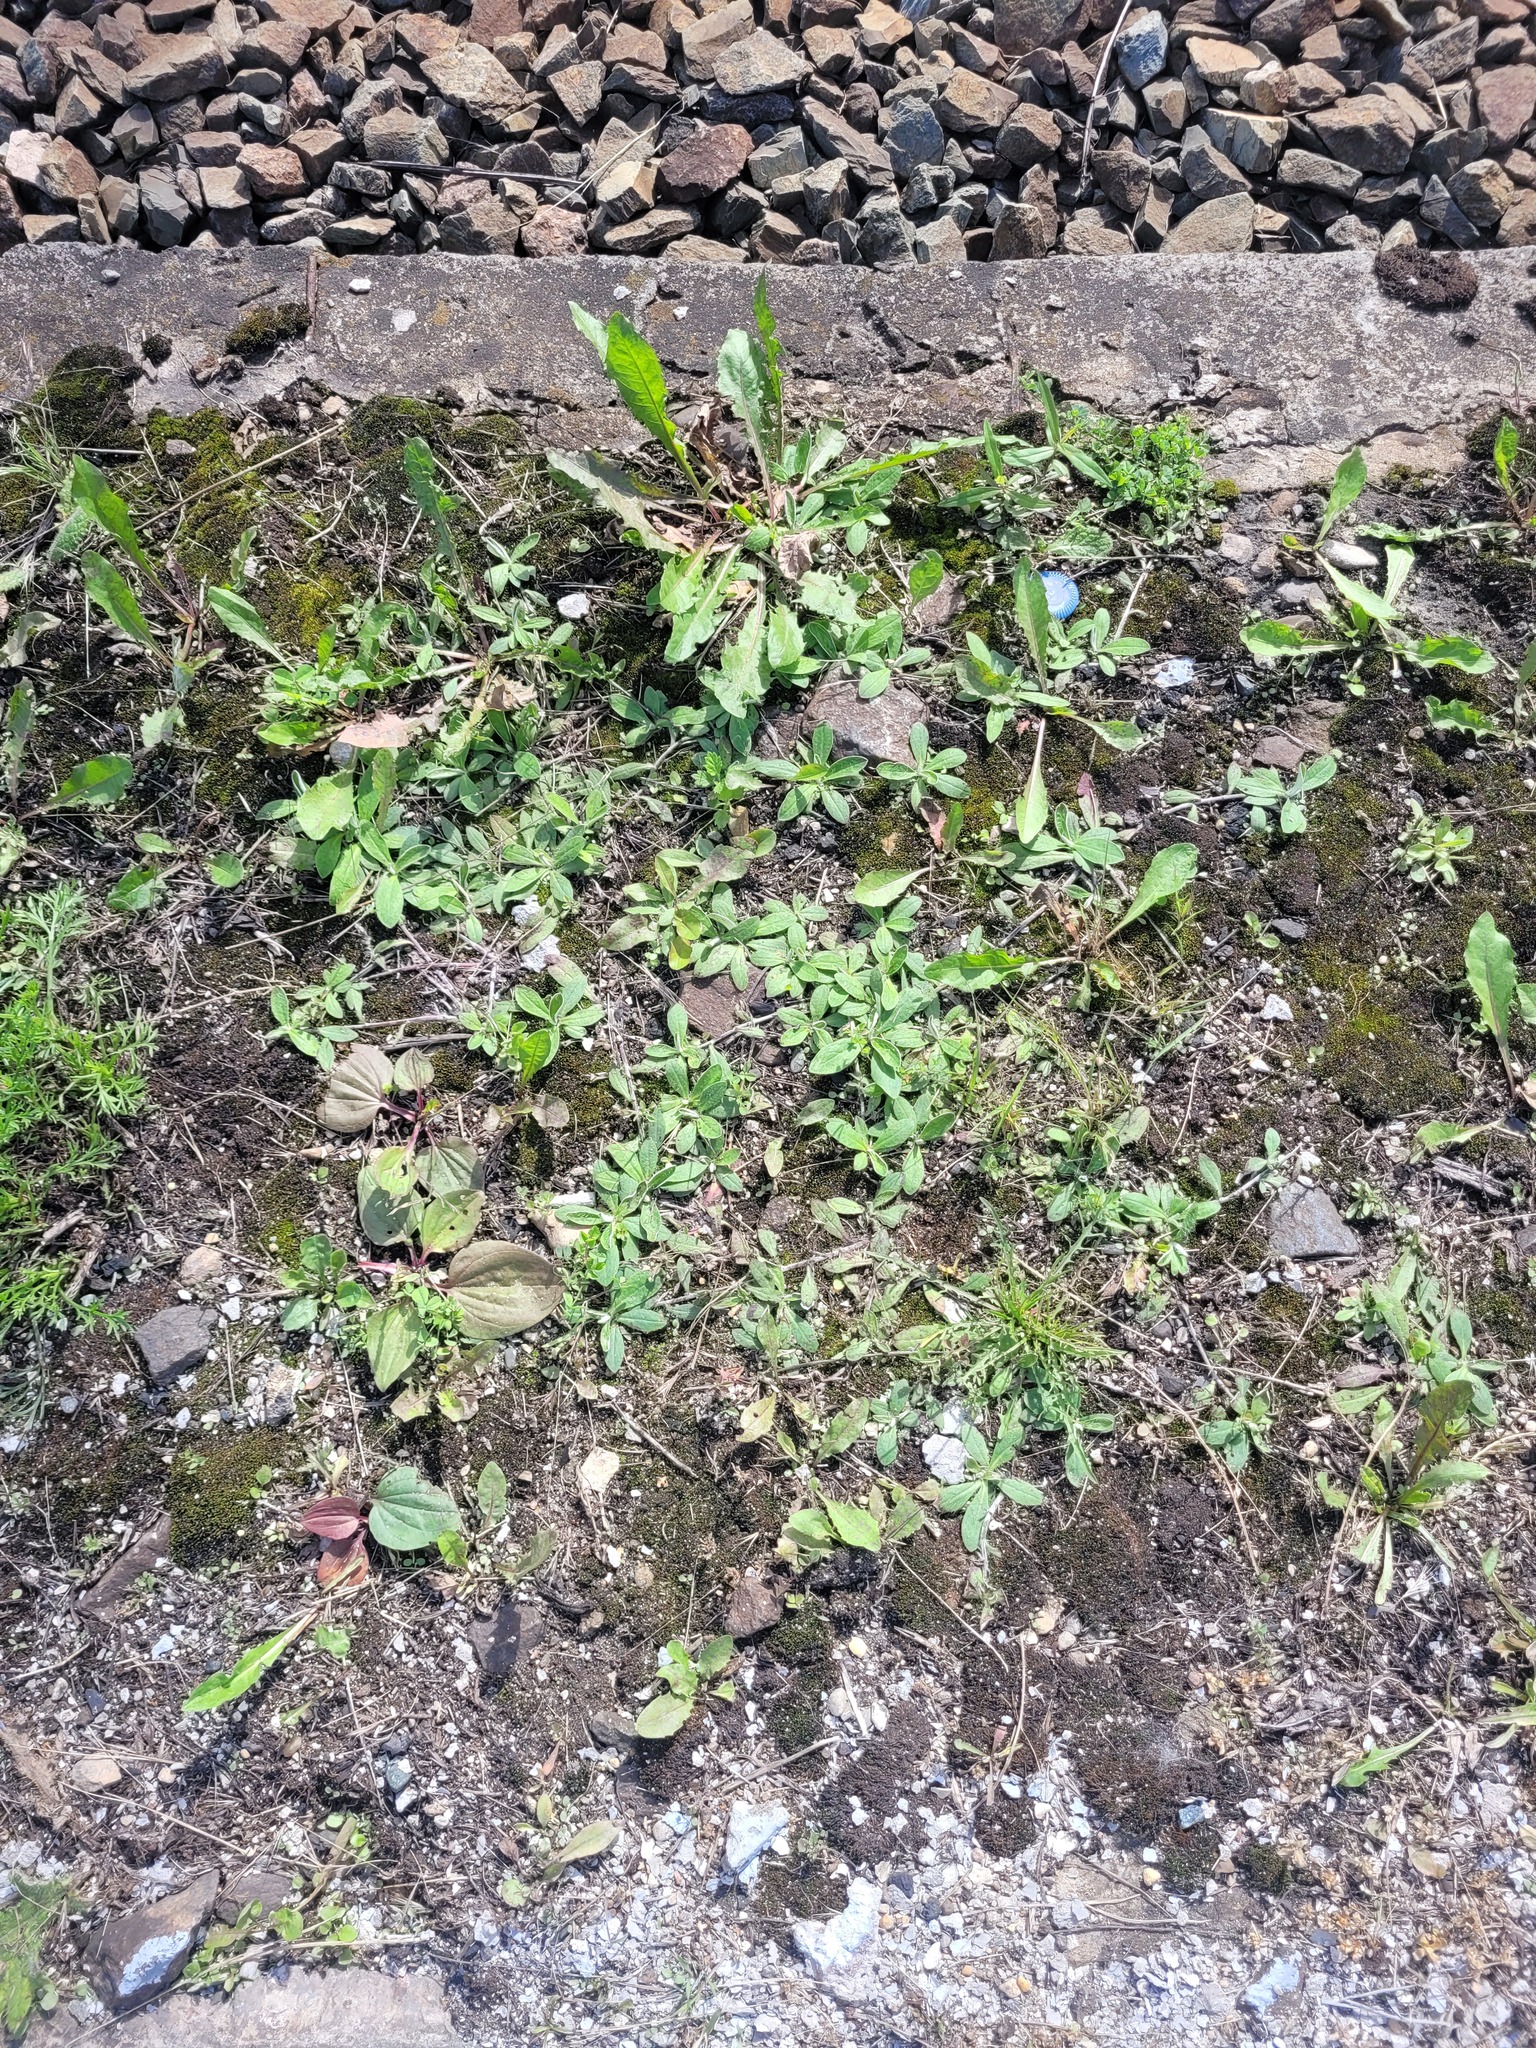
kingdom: Plantae
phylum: Tracheophyta
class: Magnoliopsida
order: Asterales
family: Asteraceae
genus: Pilosella
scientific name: Pilosella officinarum
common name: Mouse-ear hawkweed
